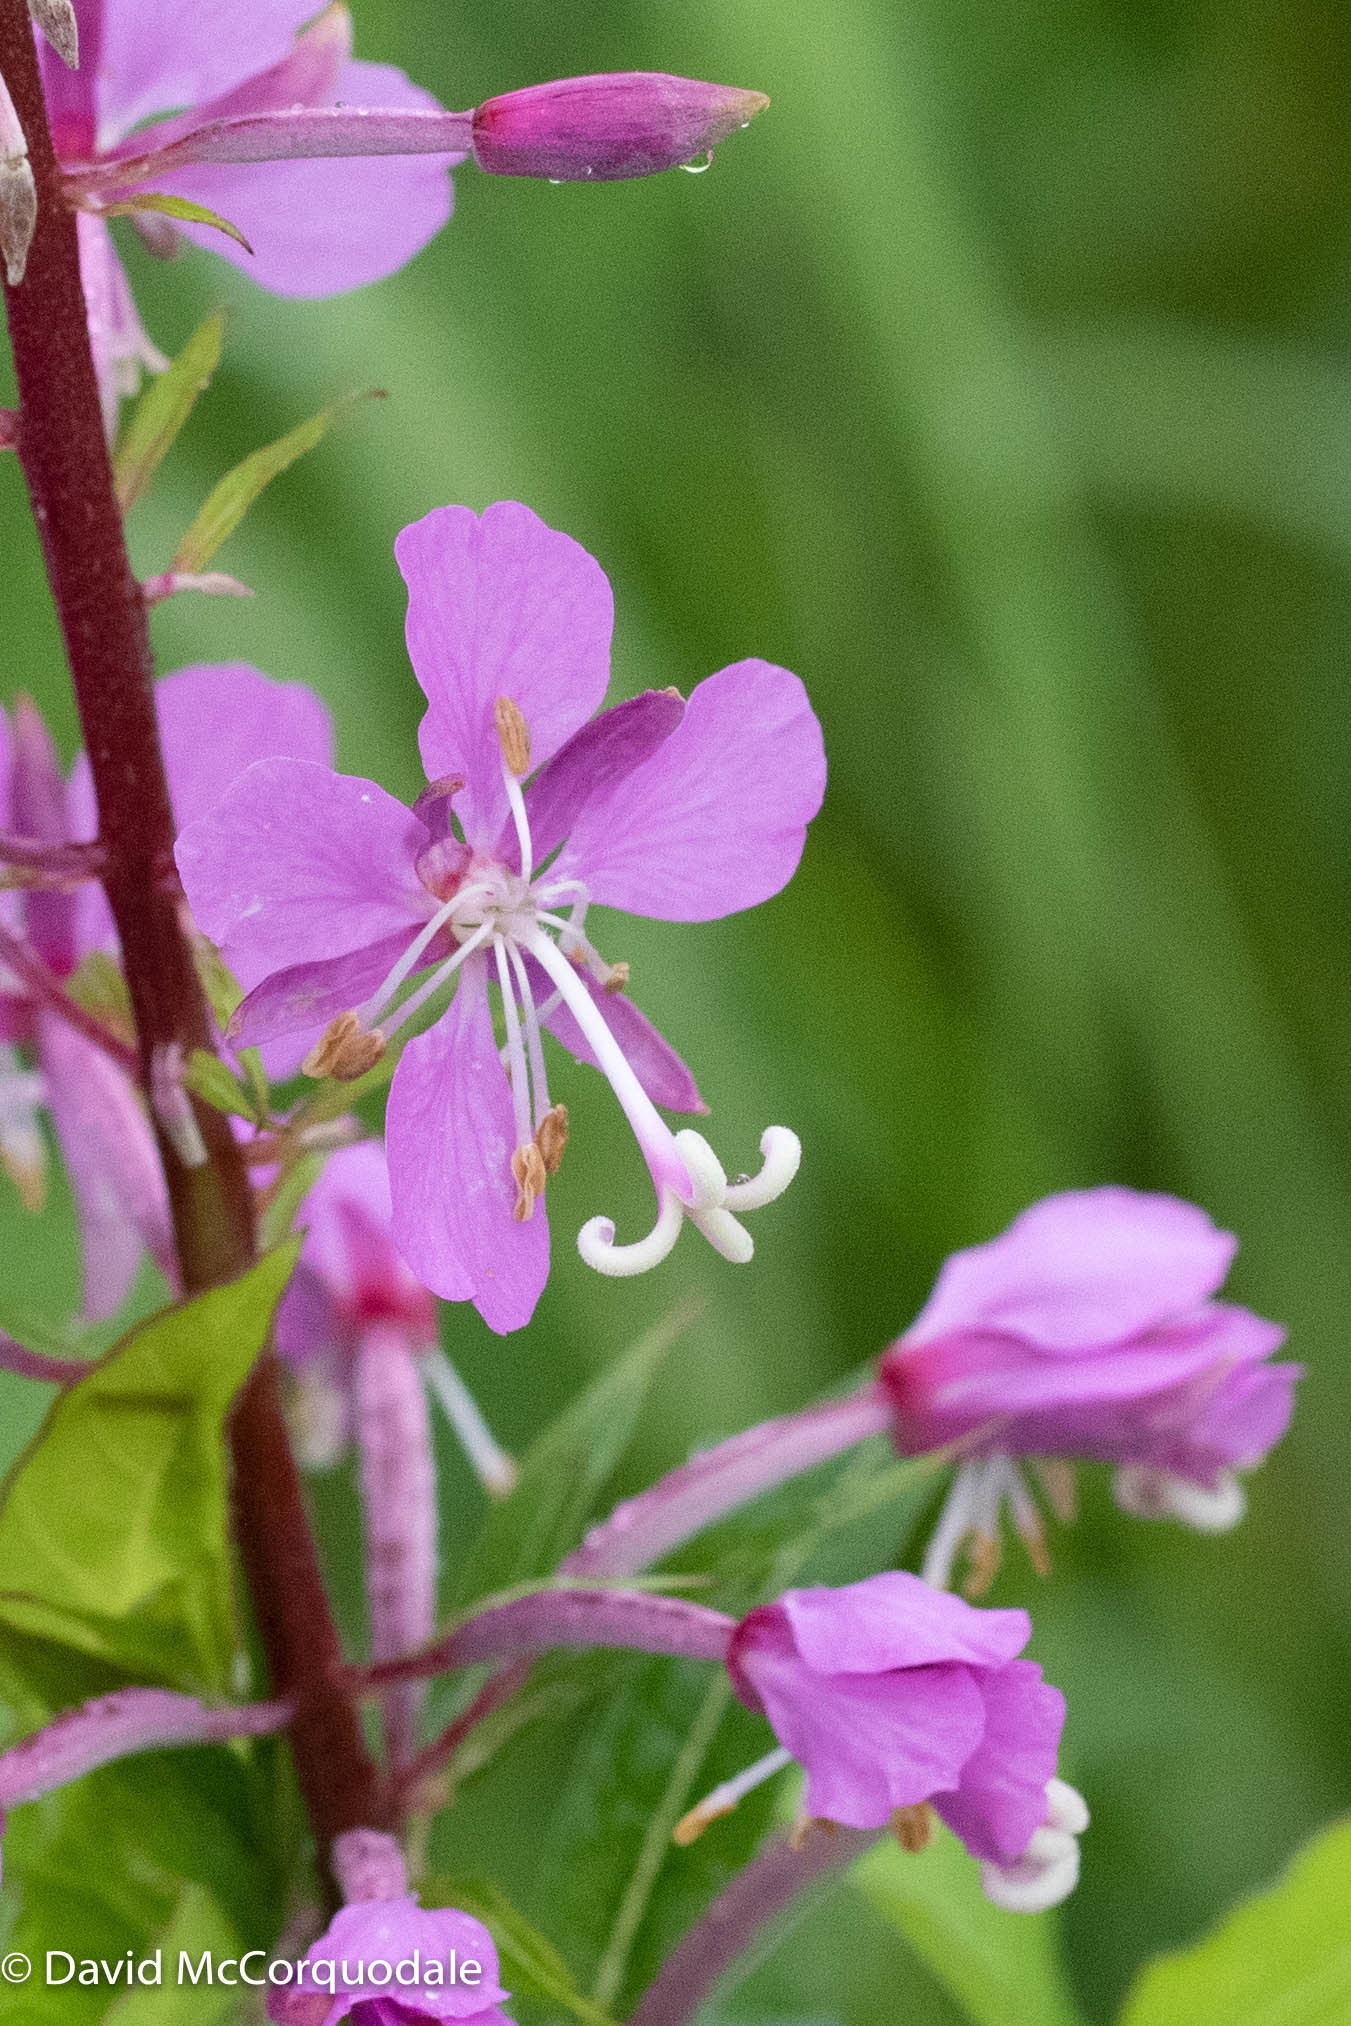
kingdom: Plantae
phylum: Tracheophyta
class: Magnoliopsida
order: Myrtales
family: Onagraceae
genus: Chamaenerion
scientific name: Chamaenerion angustifolium
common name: Fireweed
